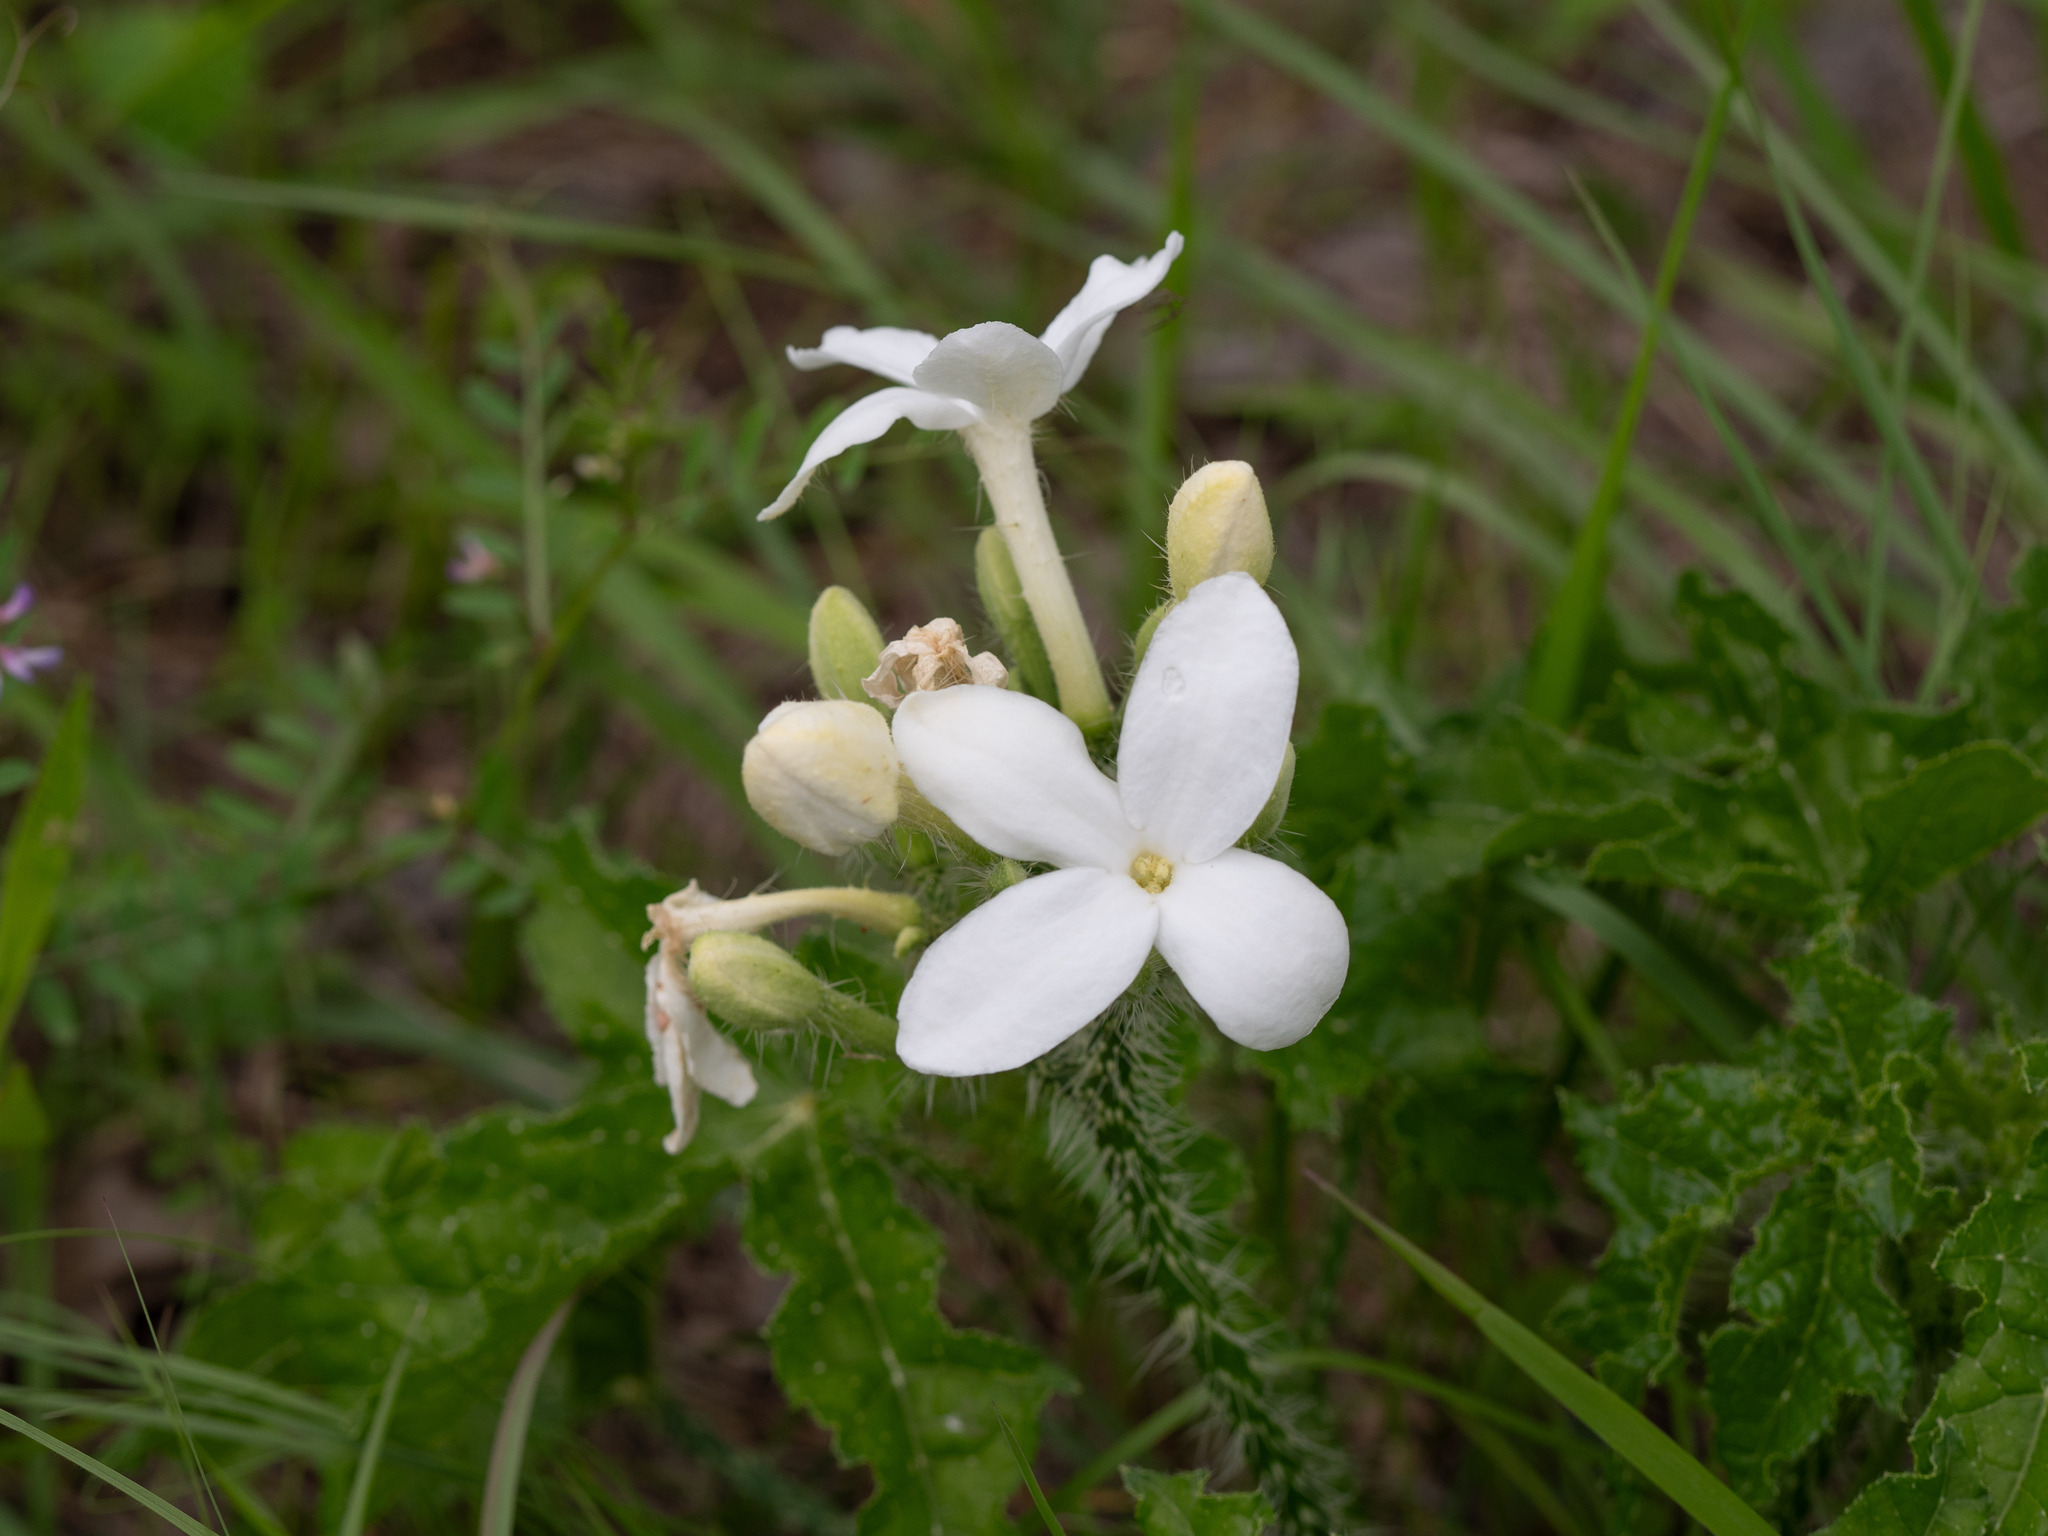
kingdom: Plantae
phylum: Tracheophyta
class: Magnoliopsida
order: Malpighiales
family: Euphorbiaceae
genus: Cnidoscolus
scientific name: Cnidoscolus texanus
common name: Texas bull-nettle
